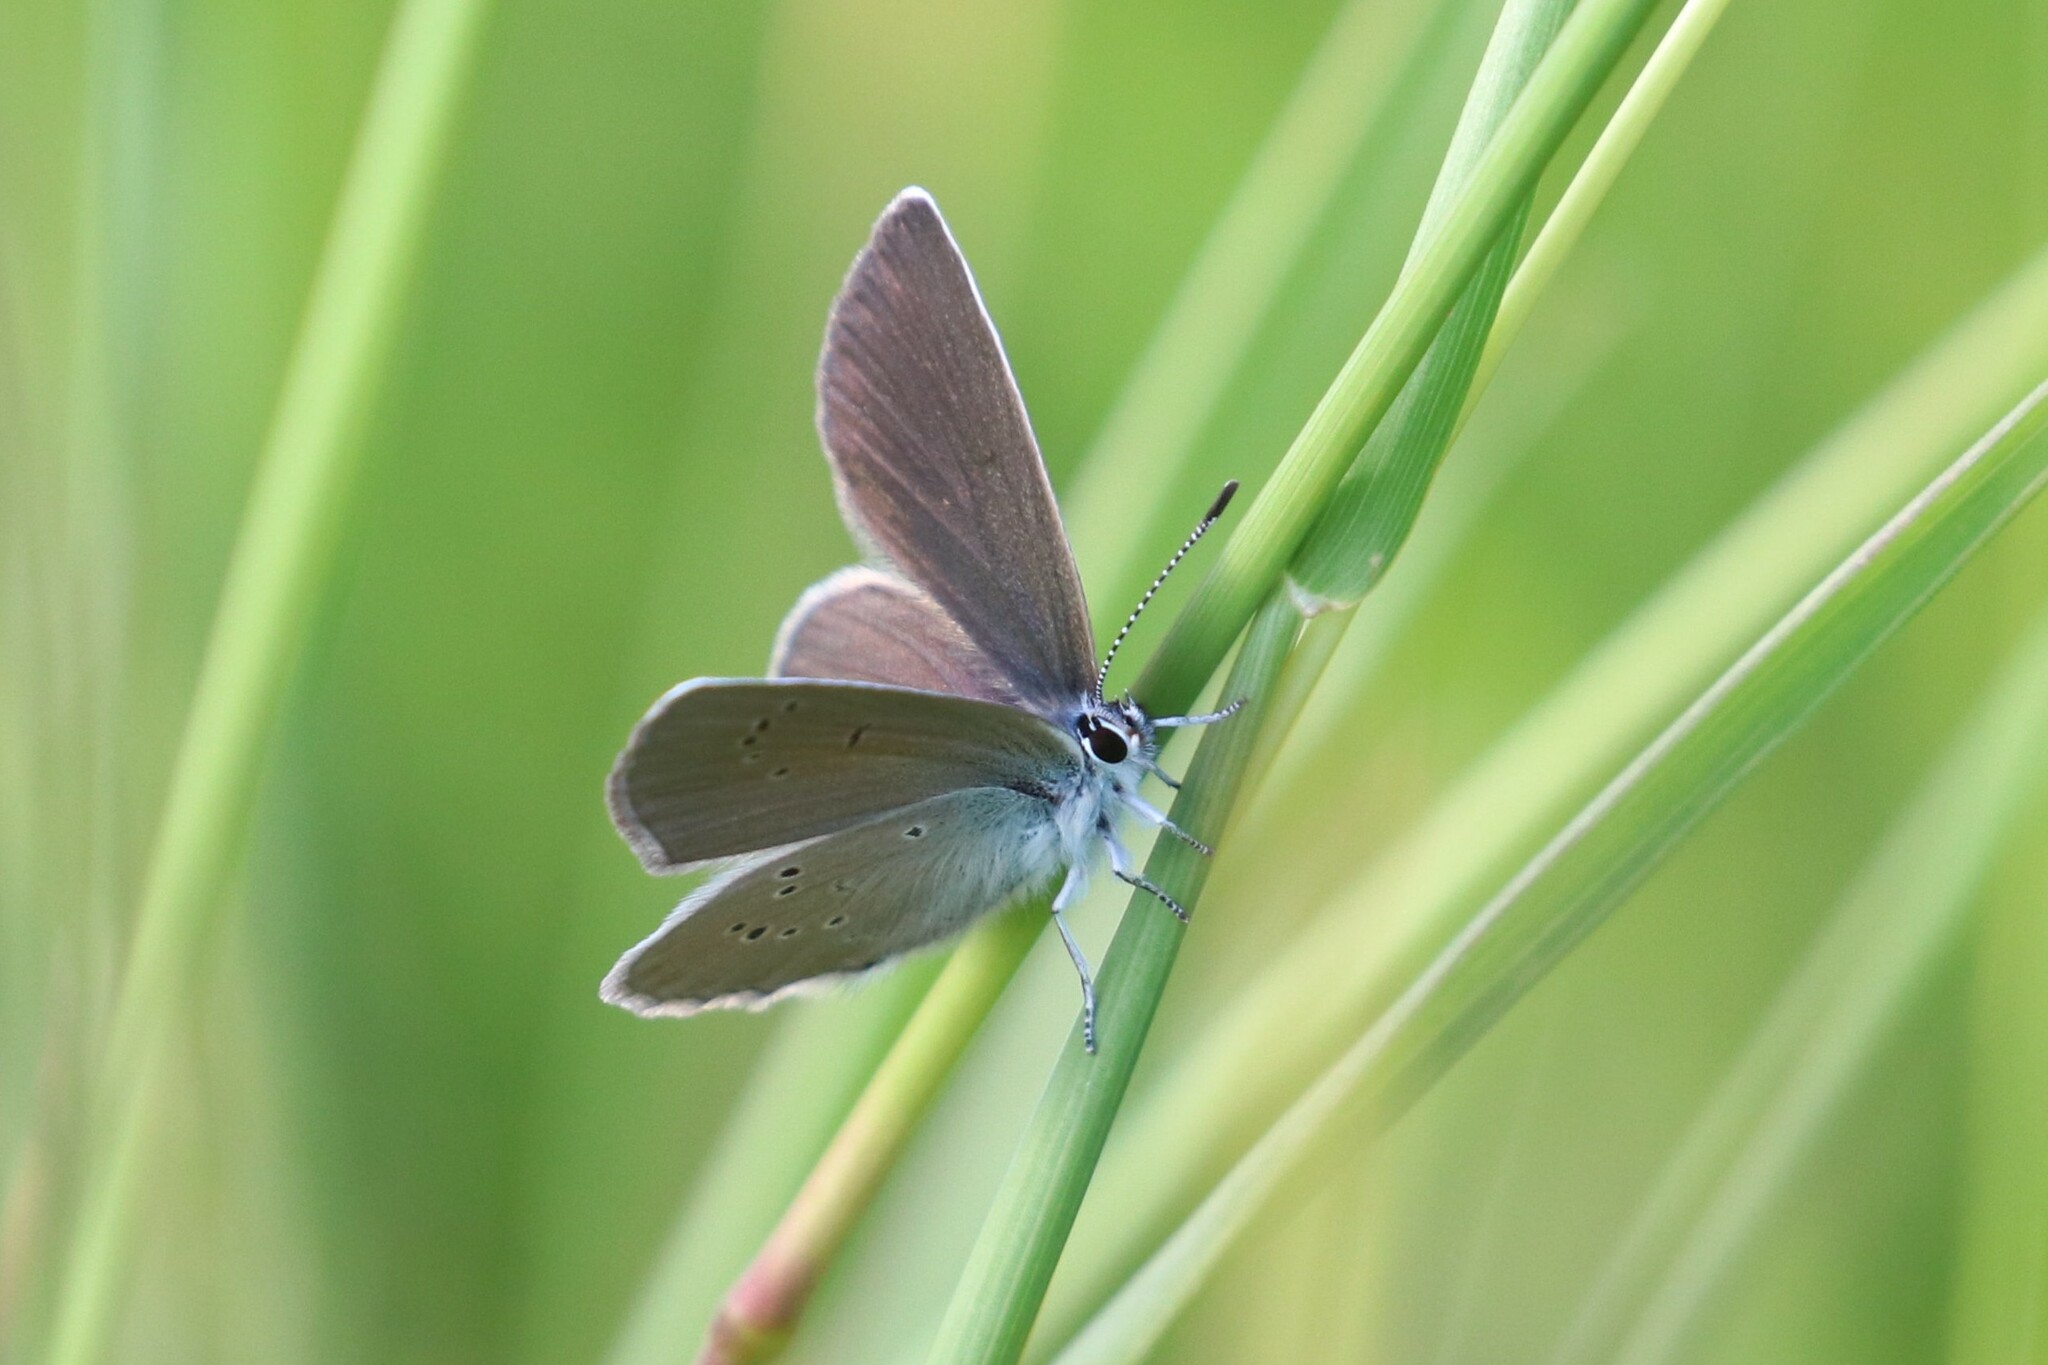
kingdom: Animalia
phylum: Arthropoda
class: Insecta
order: Lepidoptera
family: Lycaenidae
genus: Cyaniris
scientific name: Cyaniris semiargus
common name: Mazarine blue
